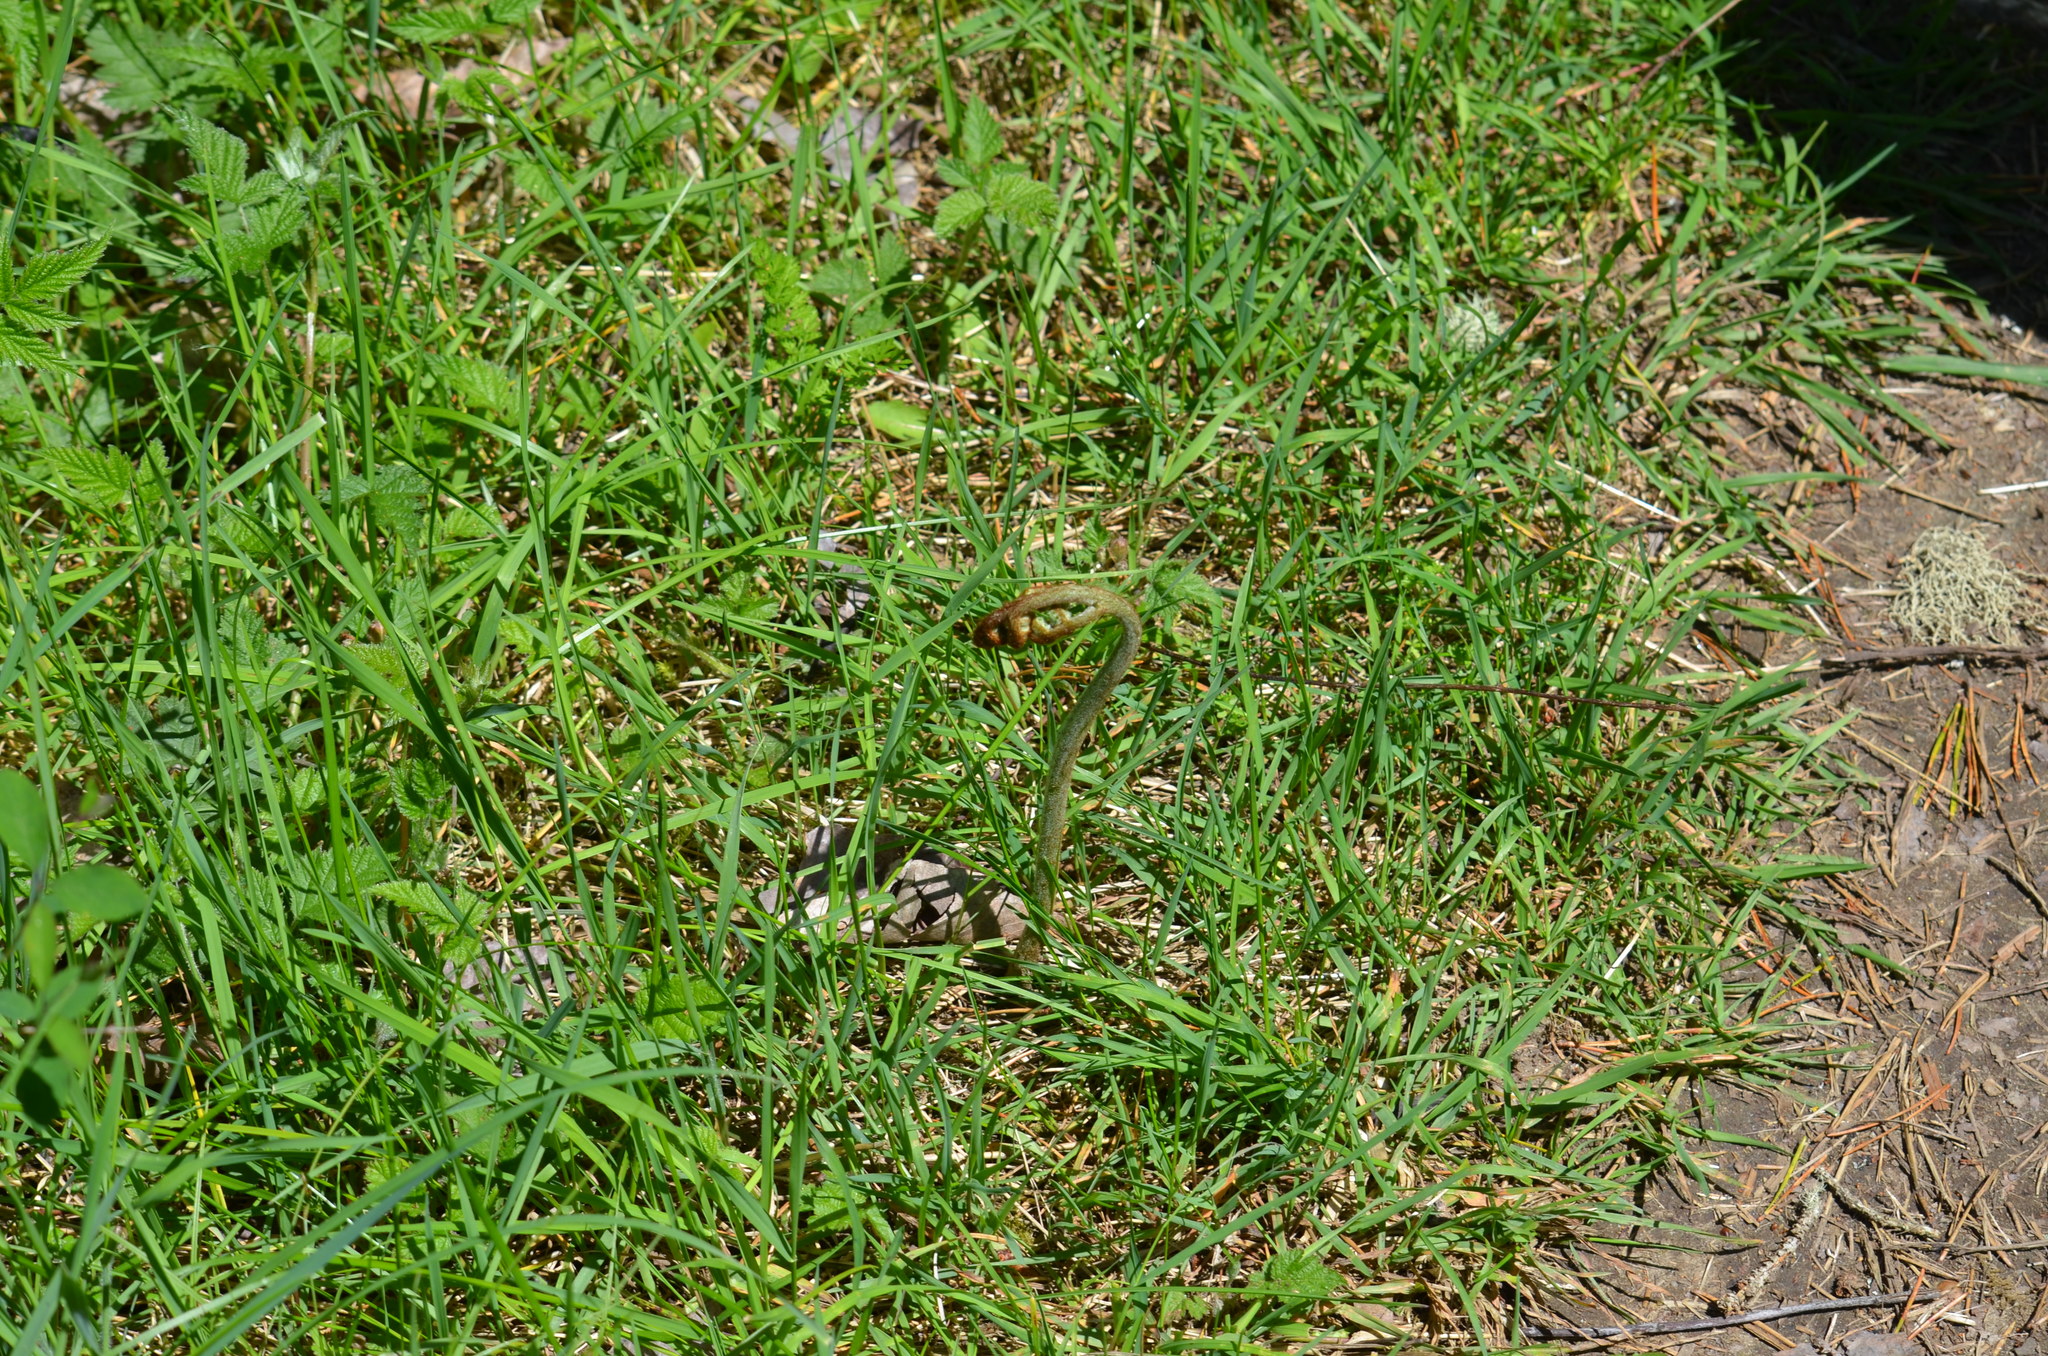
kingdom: Plantae
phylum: Tracheophyta
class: Polypodiopsida
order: Polypodiales
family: Dennstaedtiaceae
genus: Pteridium
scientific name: Pteridium aquilinum
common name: Bracken
